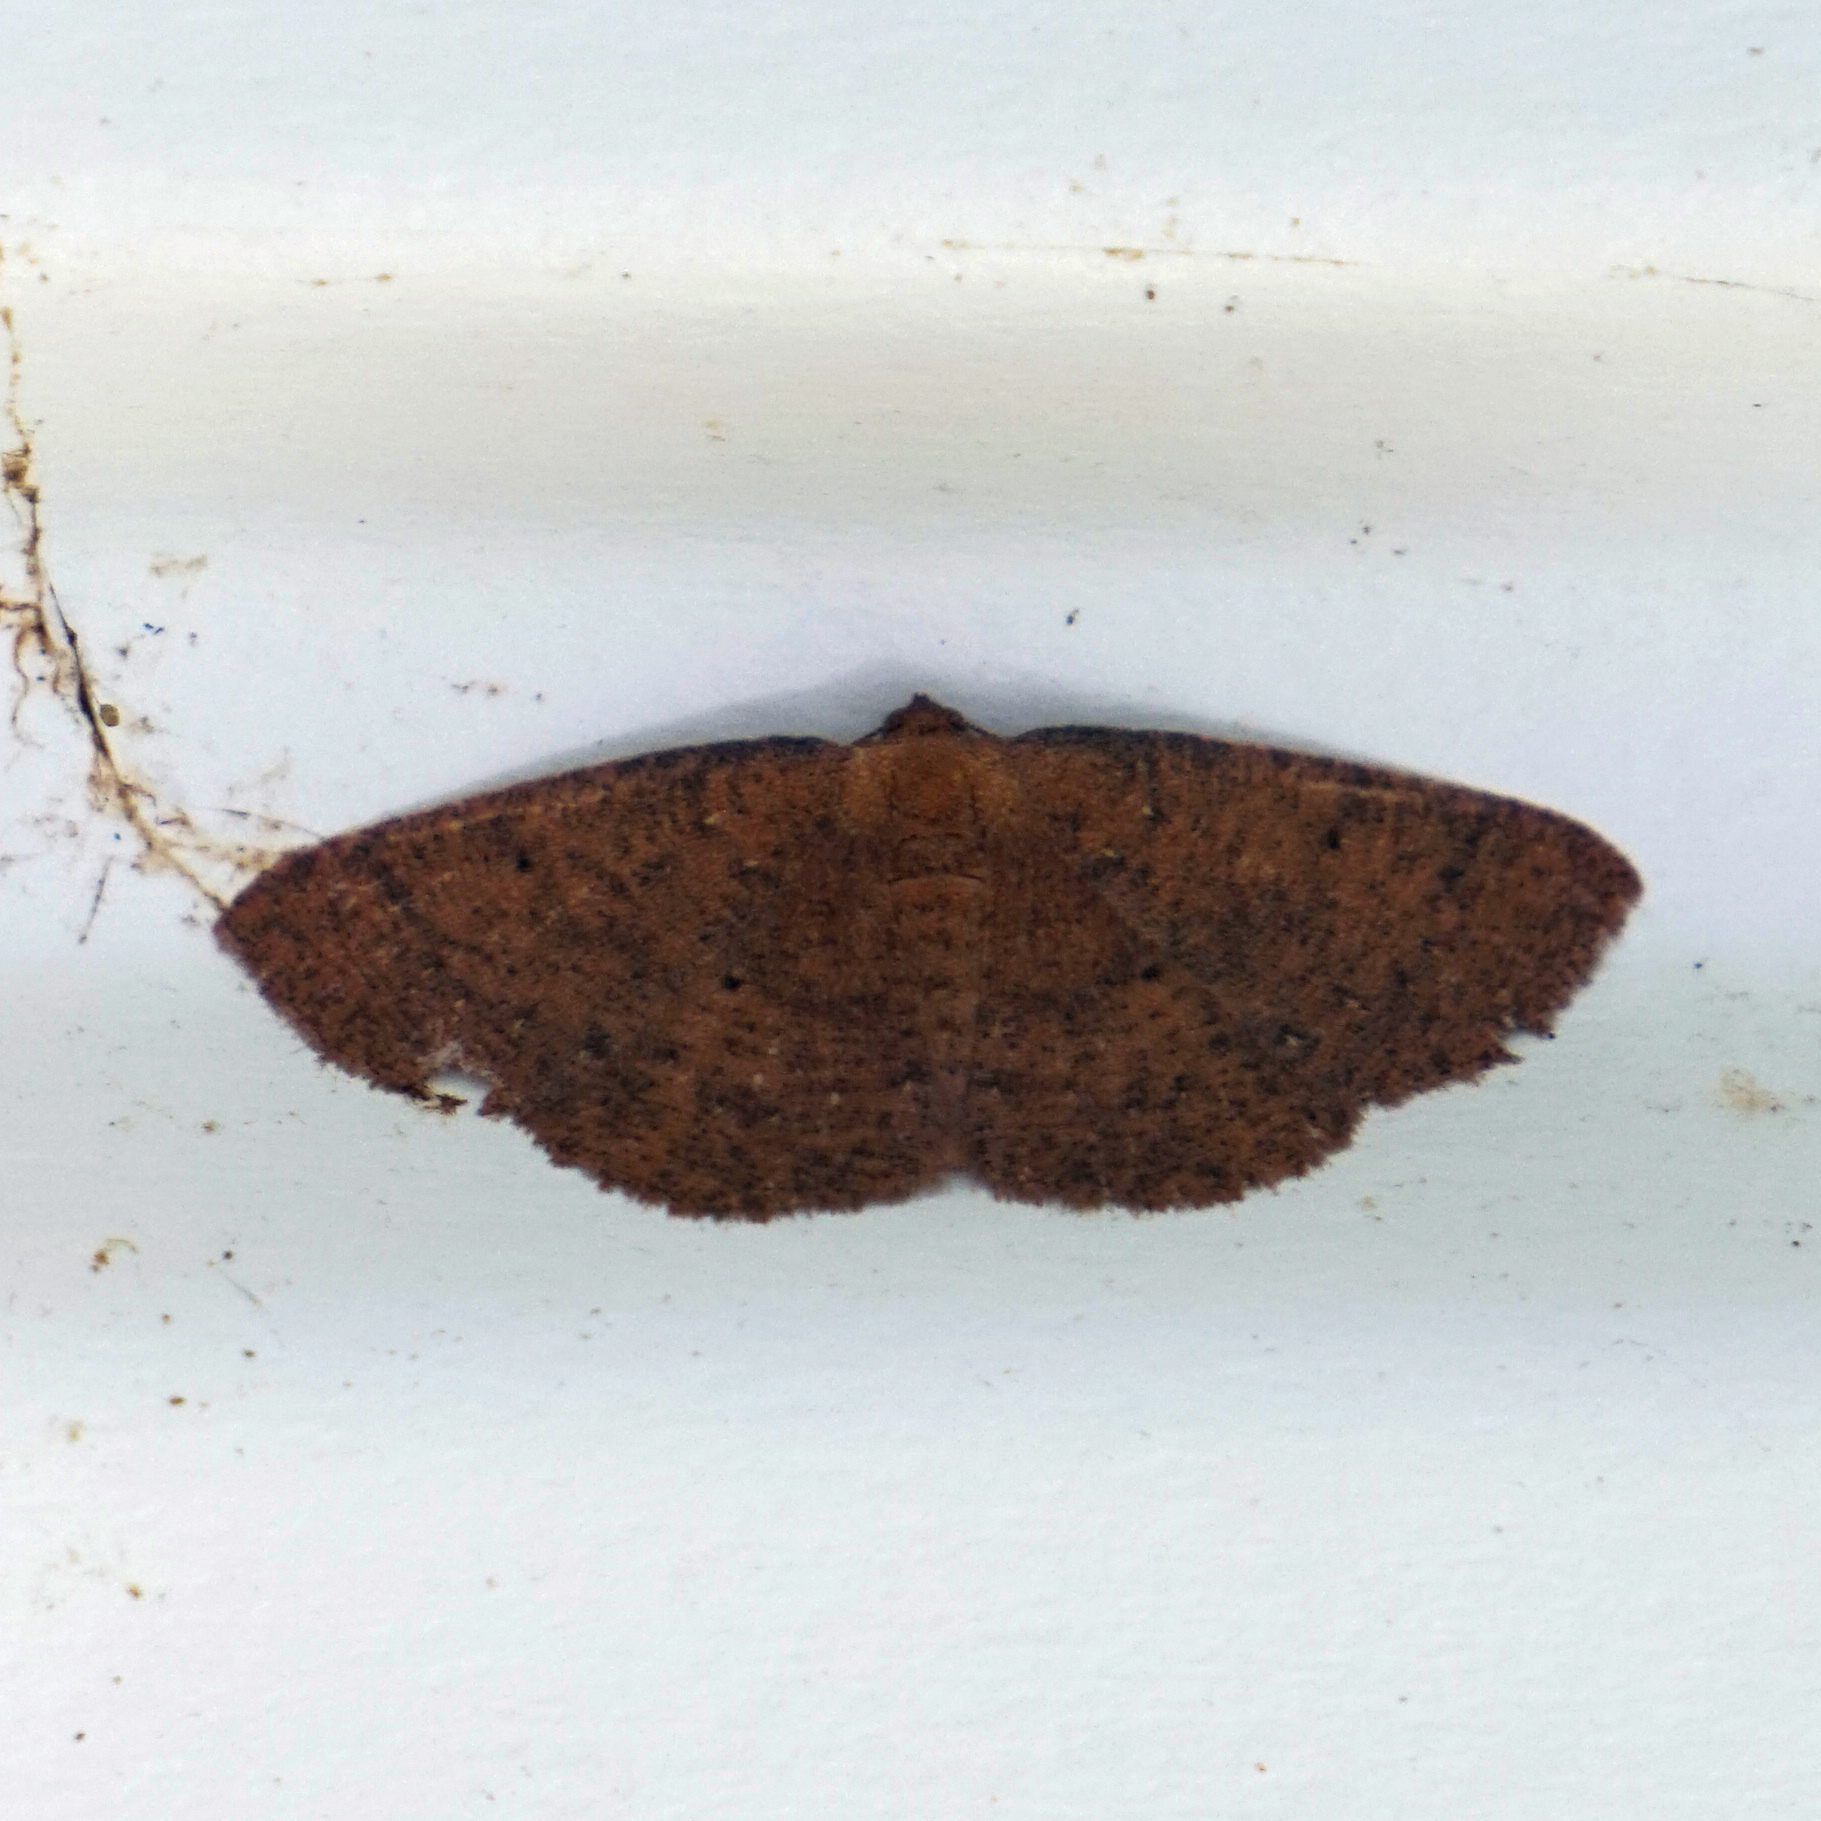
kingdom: Animalia
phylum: Arthropoda
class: Insecta
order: Lepidoptera
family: Geometridae
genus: Ilexia
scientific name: Ilexia intractata
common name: Black-dotted ruddy moth
